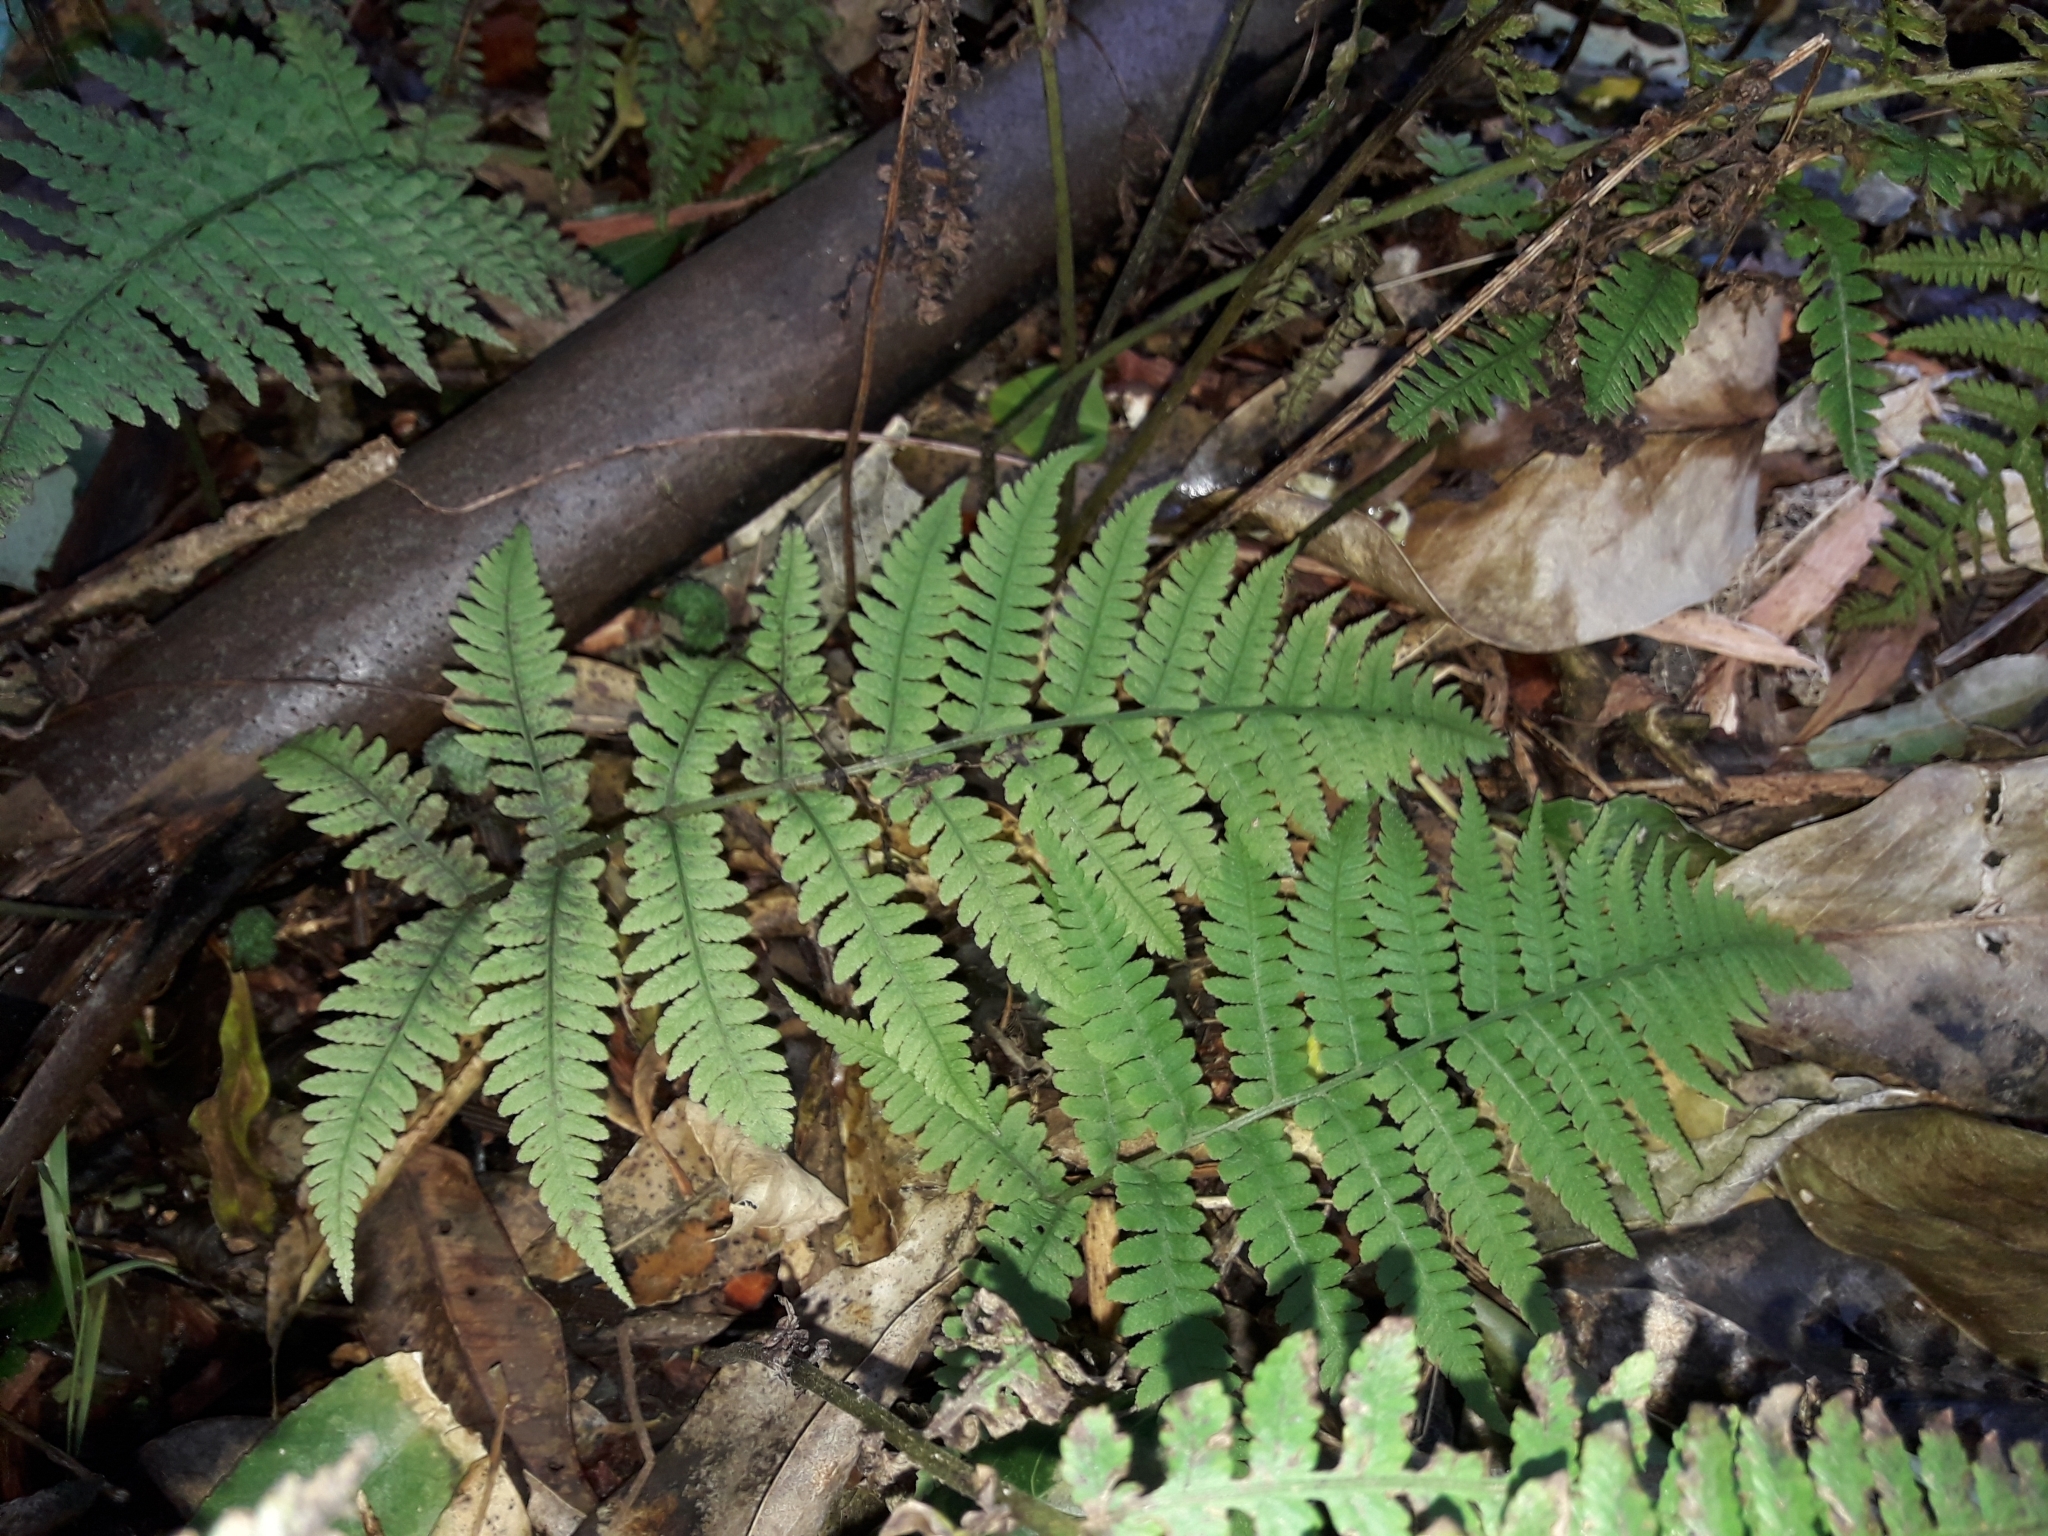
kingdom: Plantae
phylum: Tracheophyta
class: Polypodiopsida
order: Polypodiales
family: Athyriaceae
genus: Deparia
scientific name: Deparia petersenii
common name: Japanese false spleenwort
